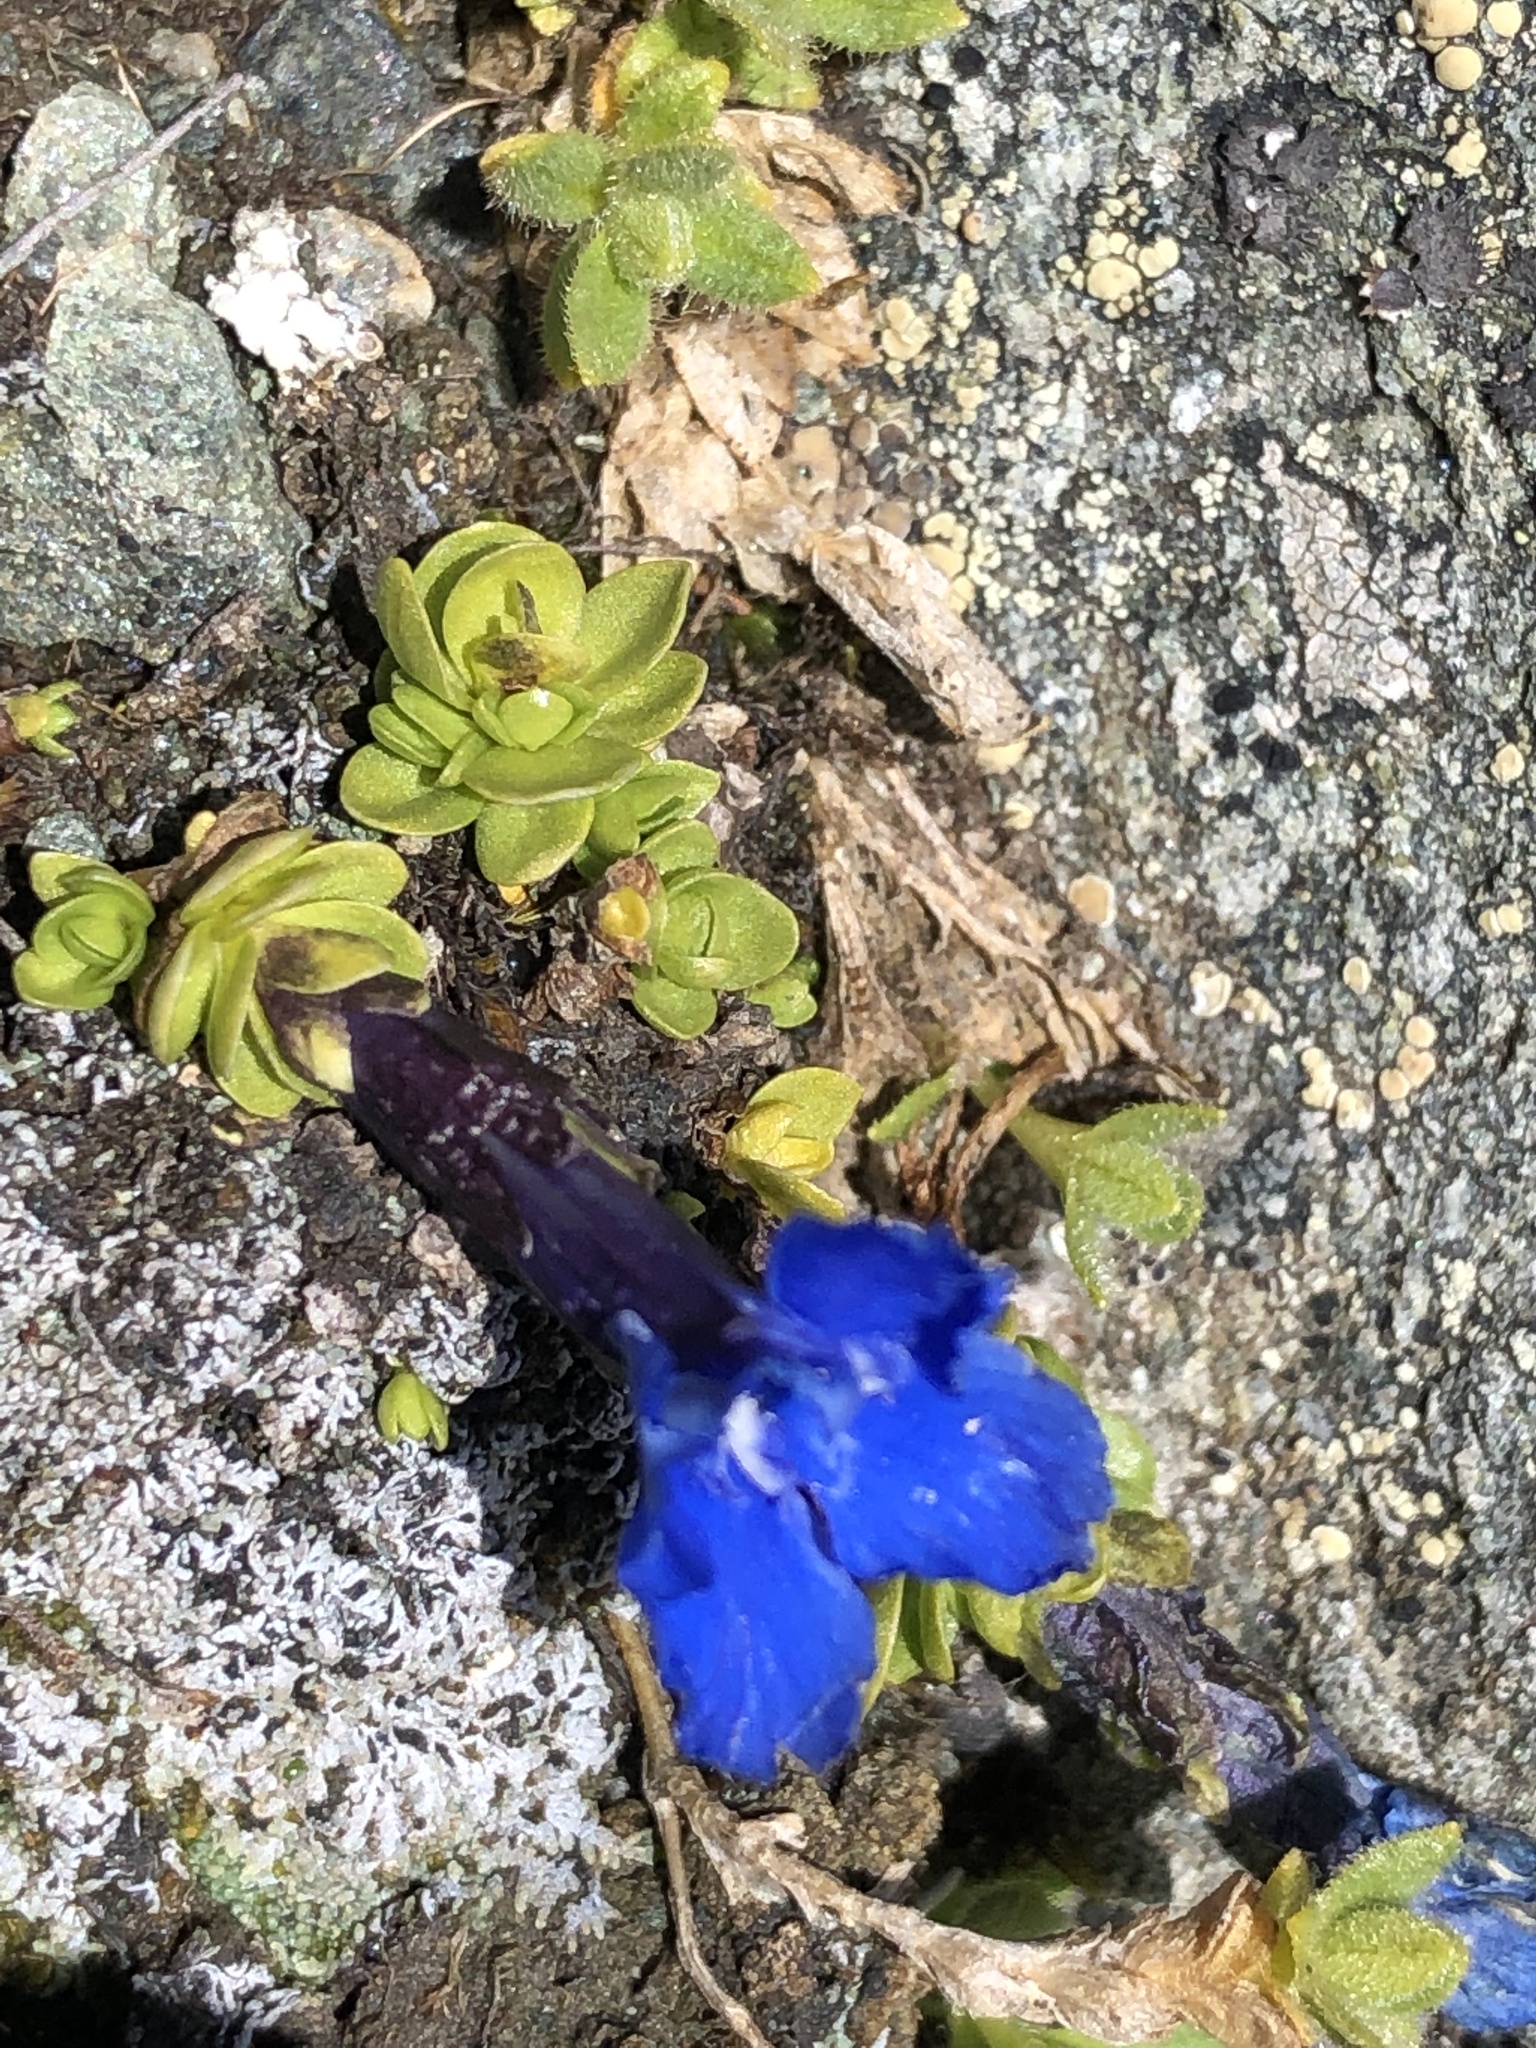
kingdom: Plantae
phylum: Tracheophyta
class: Magnoliopsida
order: Gentianales
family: Gentianaceae
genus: Gentiana
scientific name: Gentiana bavarica
